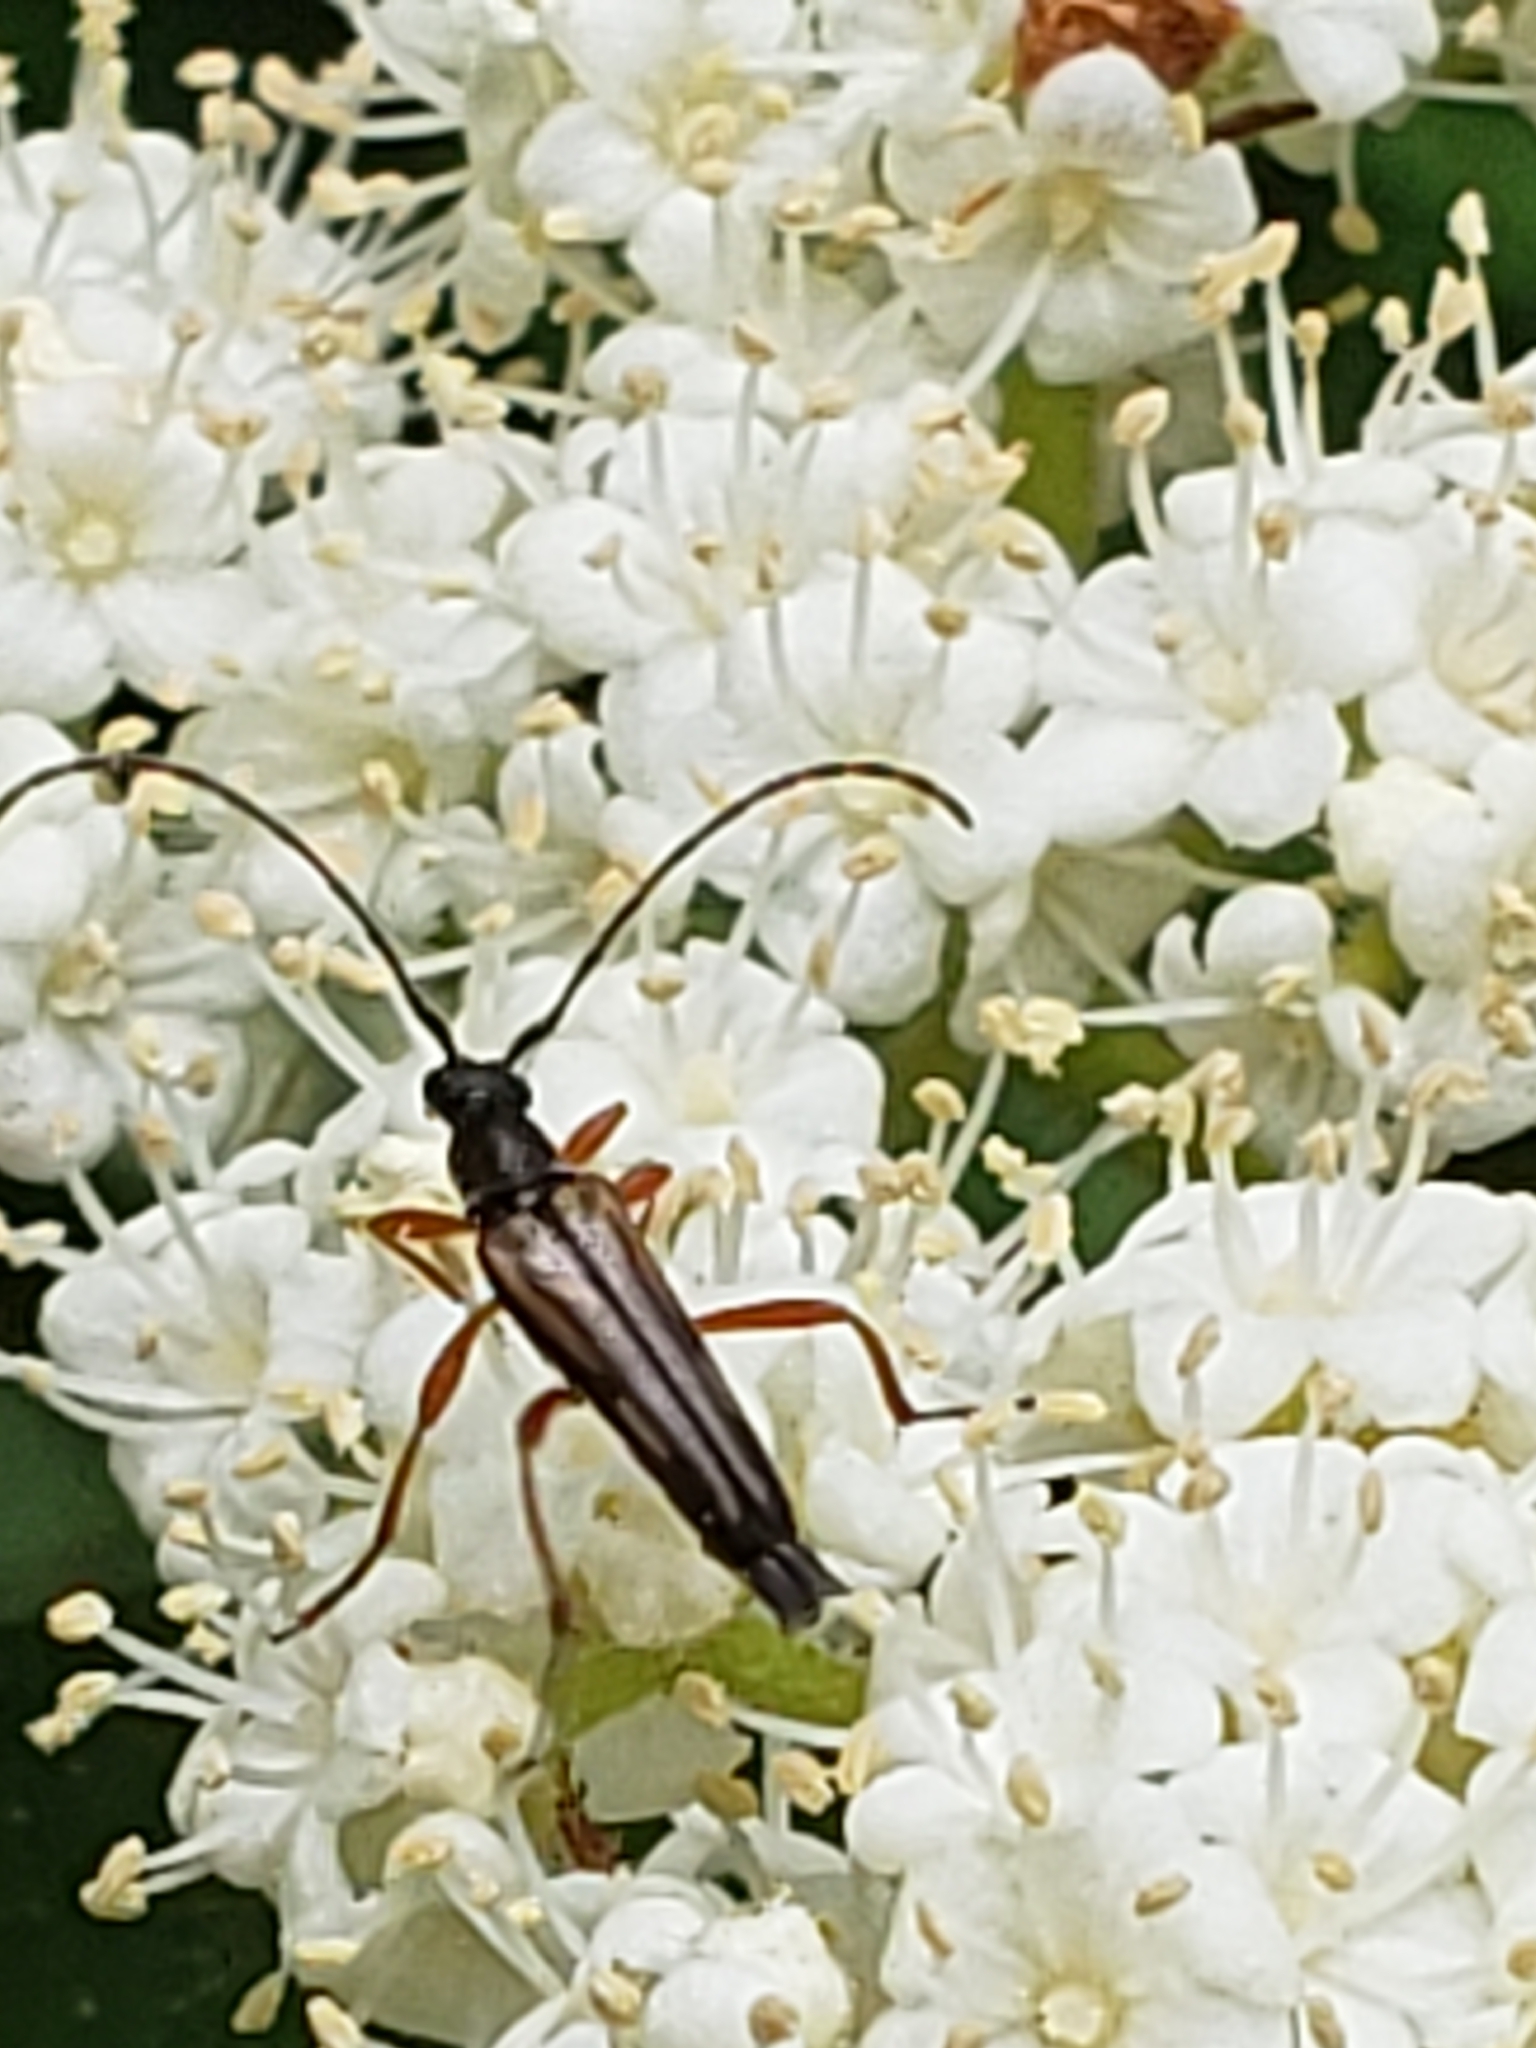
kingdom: Animalia
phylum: Arthropoda
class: Insecta
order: Coleoptera
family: Cerambycidae
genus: Analeptura
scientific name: Analeptura lineola
